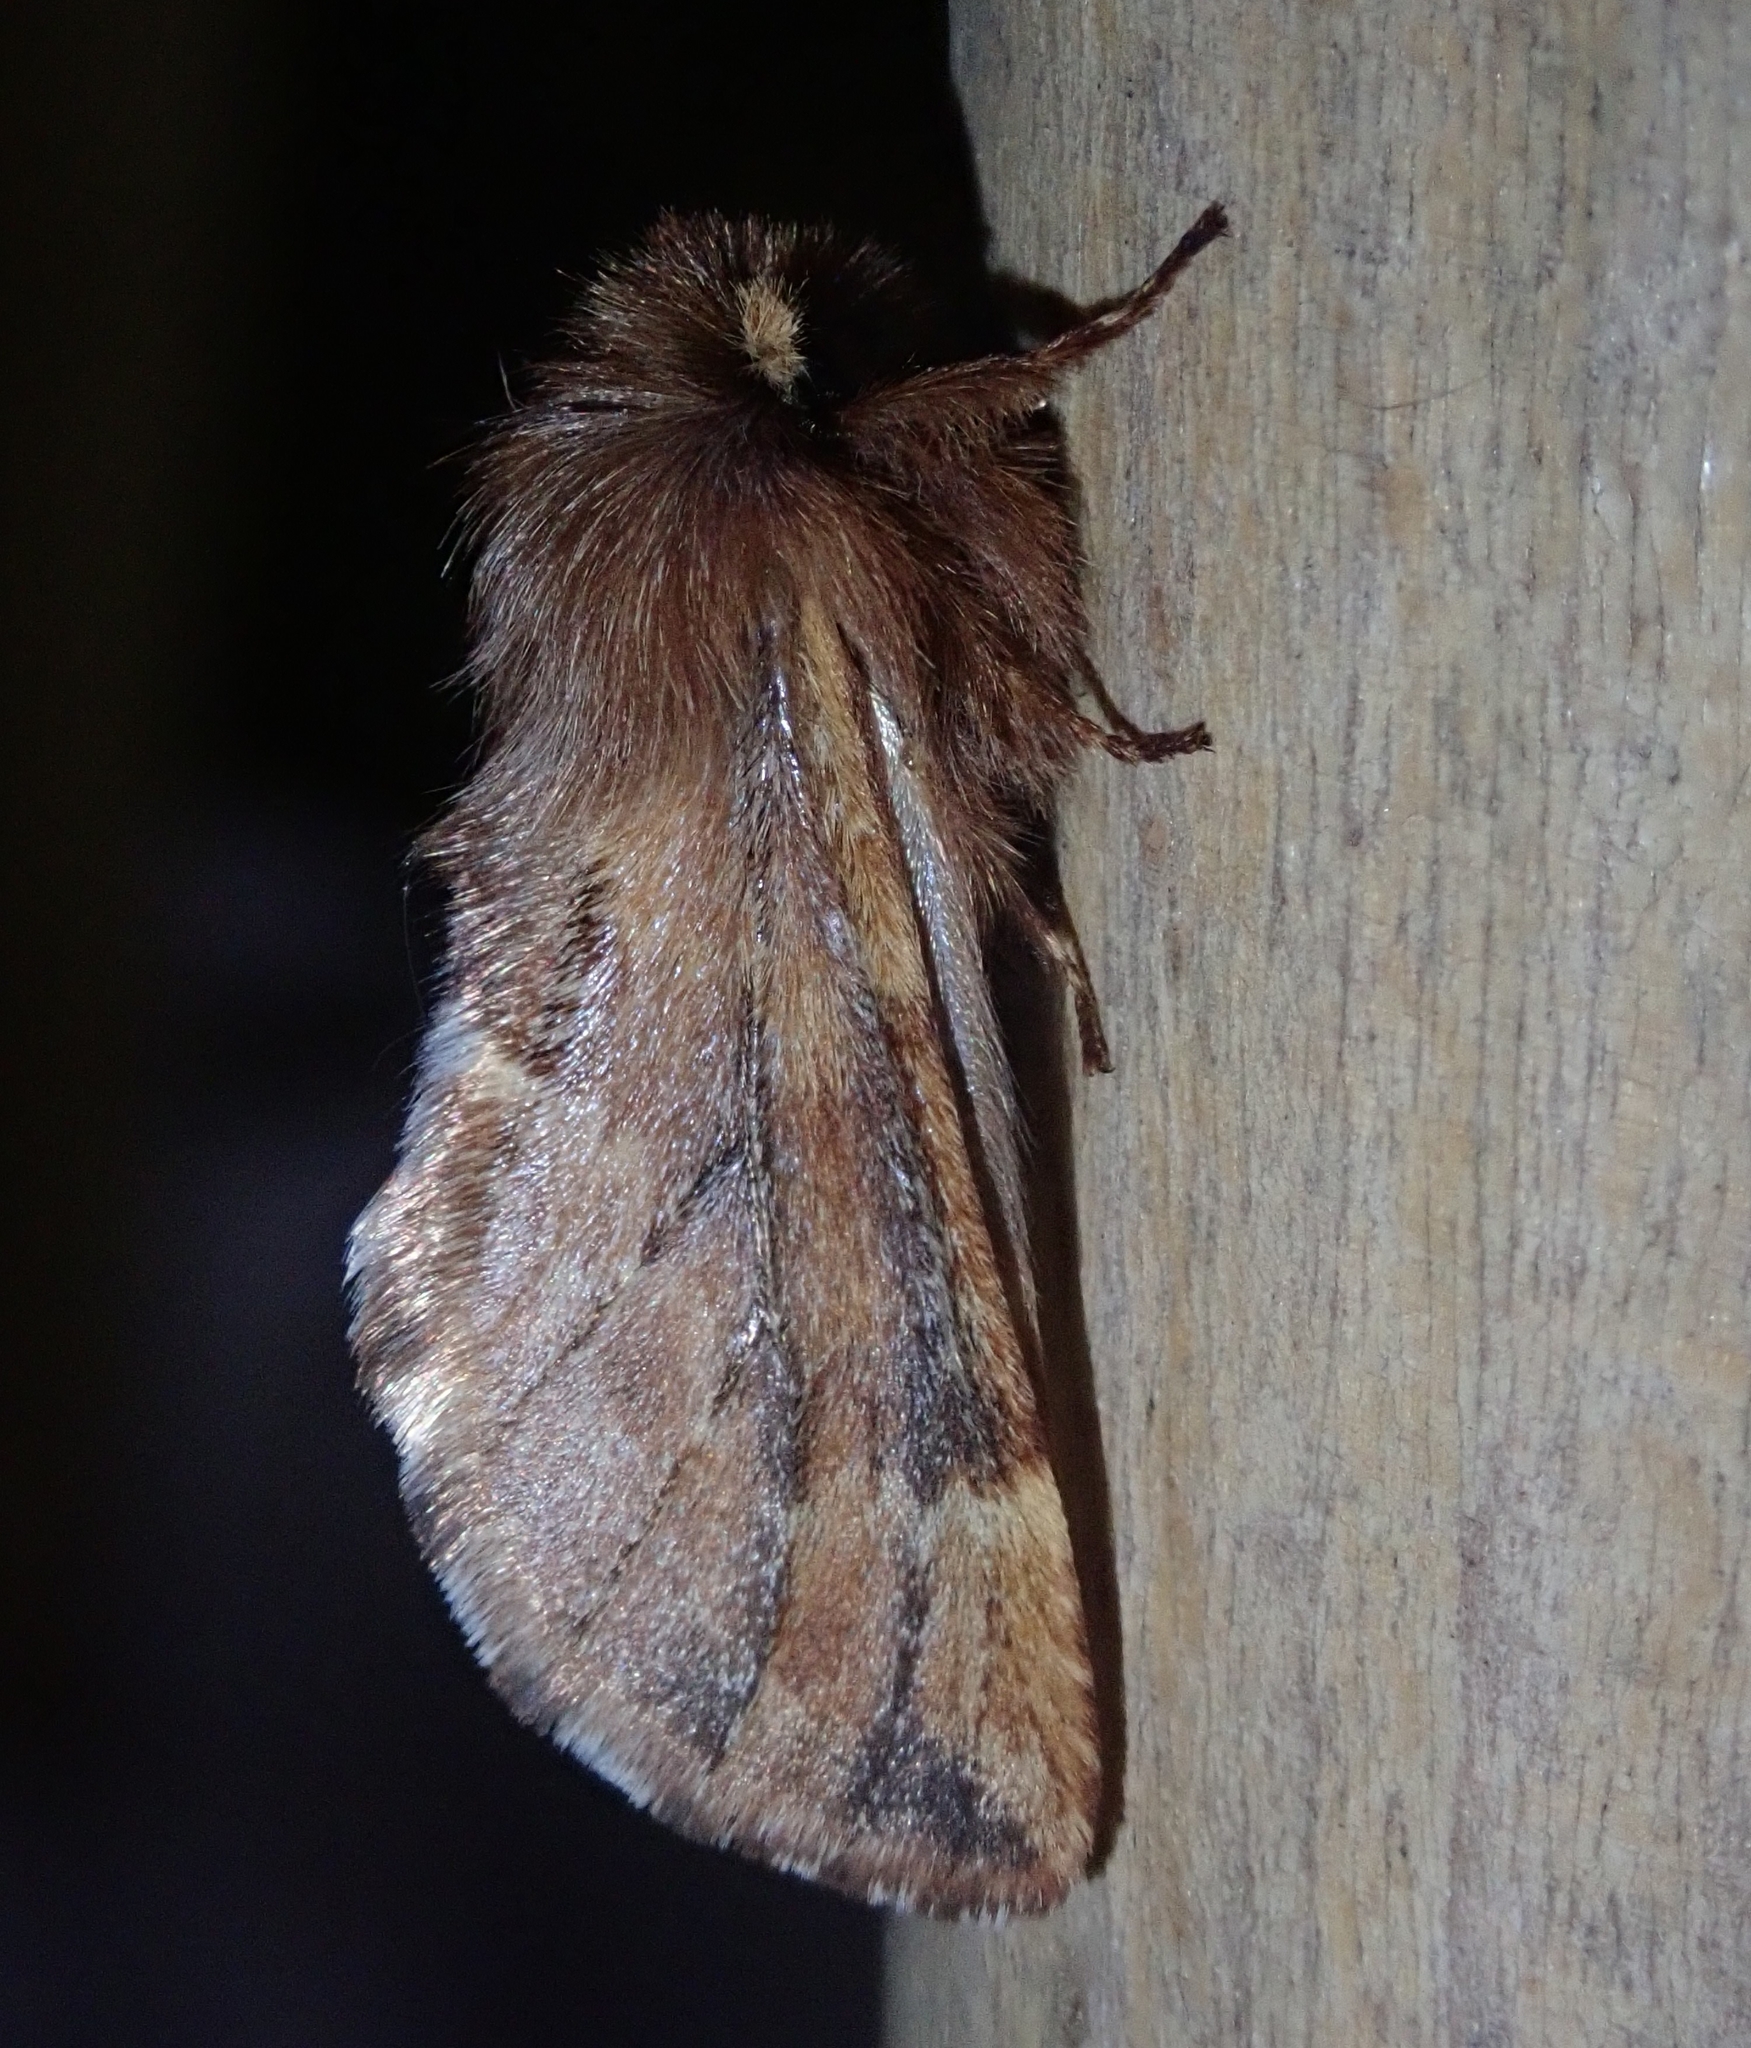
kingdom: Animalia
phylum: Arthropoda
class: Insecta
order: Lepidoptera
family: Notodontidae
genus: Ptilophora
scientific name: Ptilophora plumigera
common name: Plumed prominent
